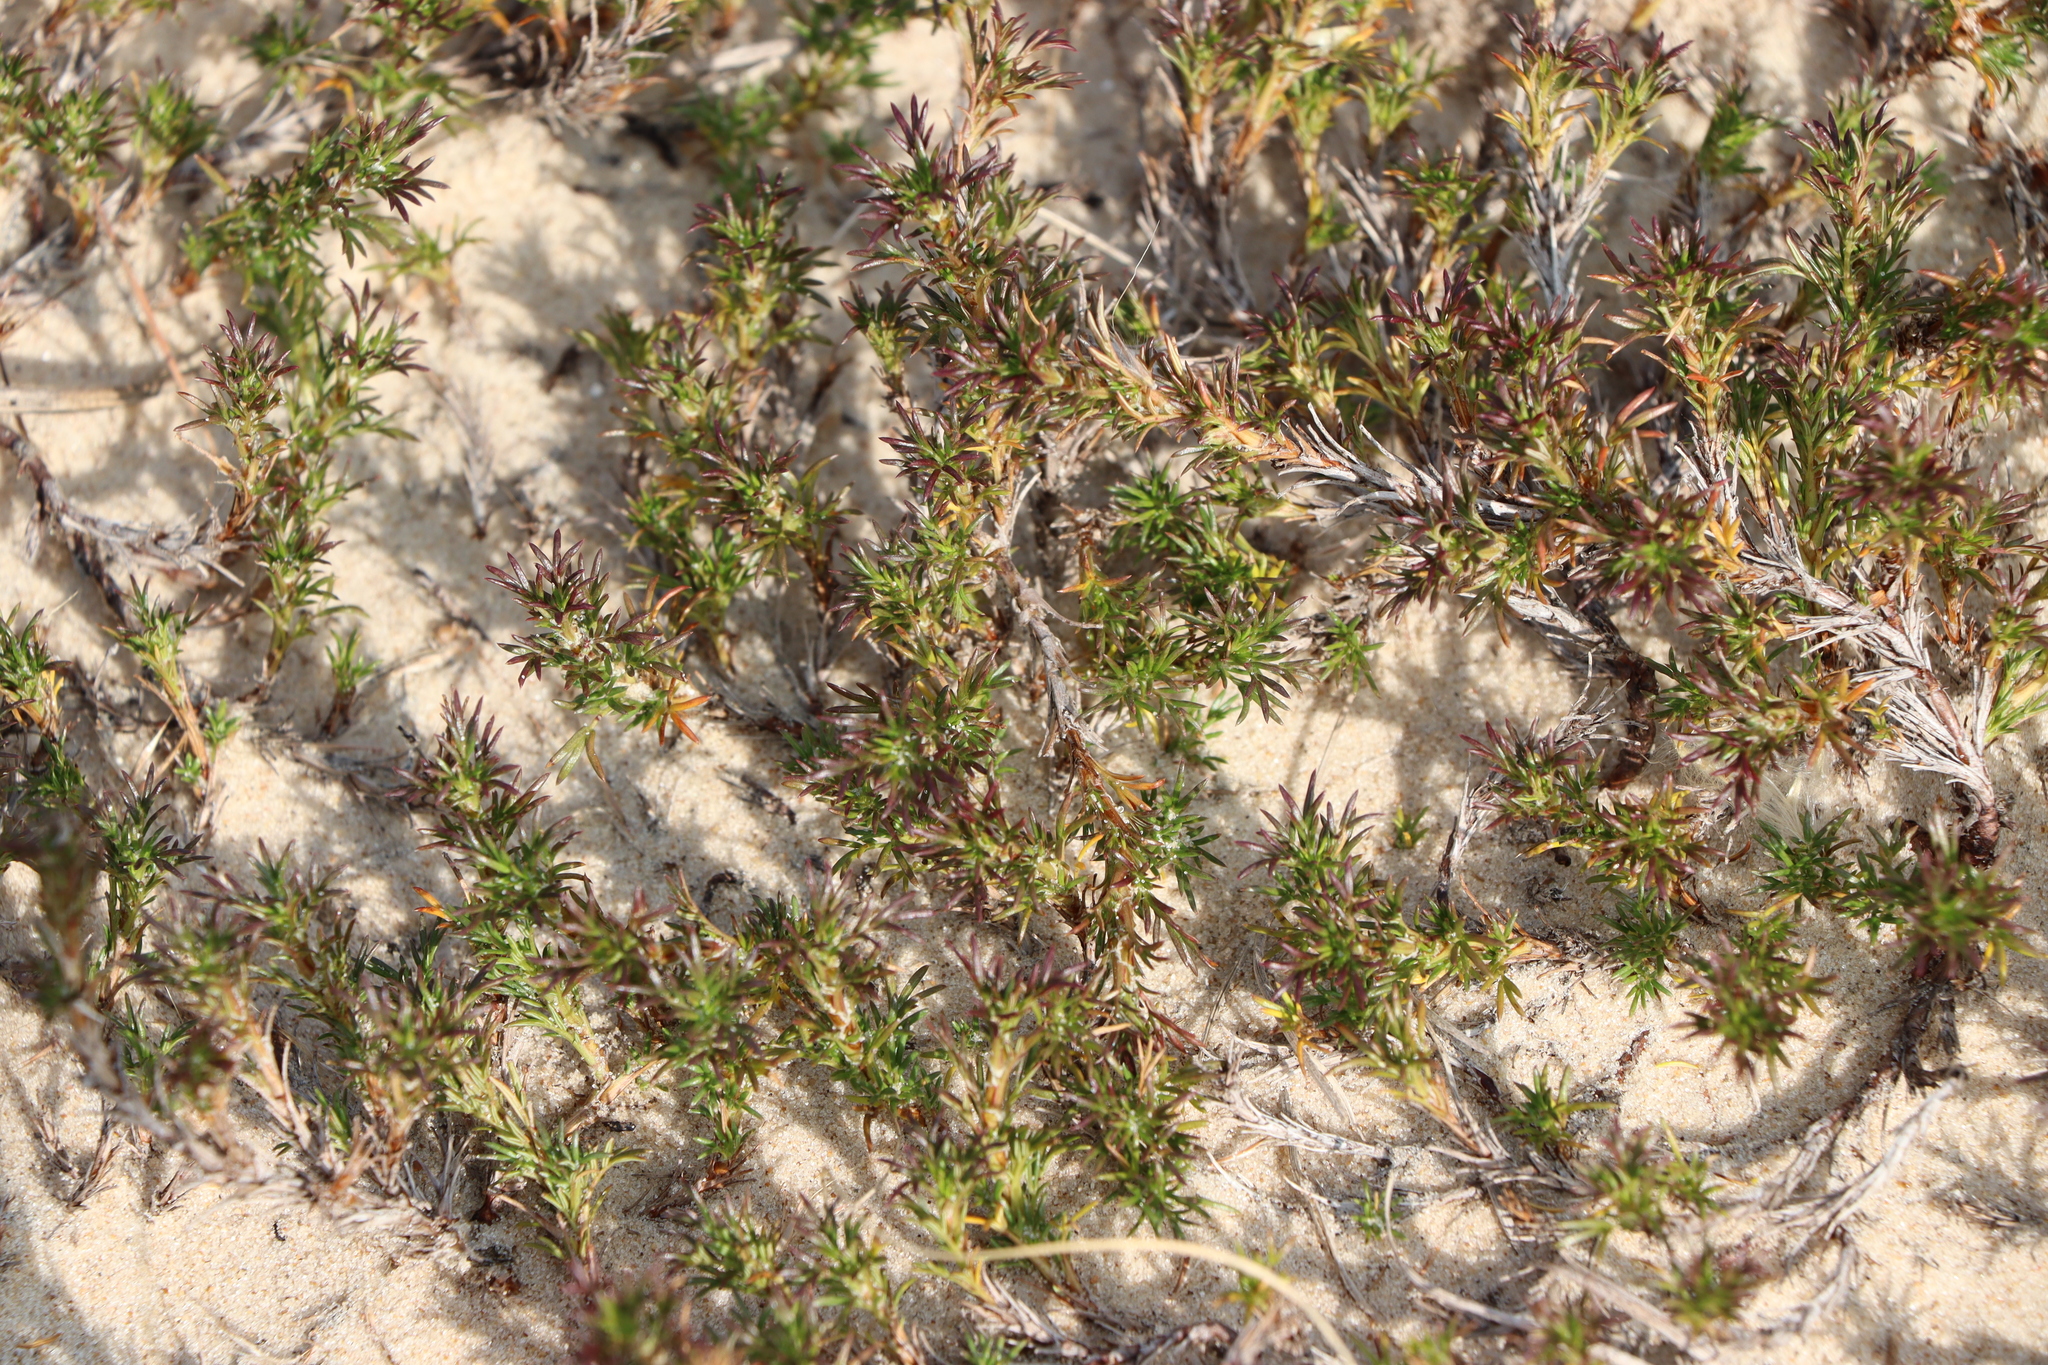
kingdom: Plantae
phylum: Tracheophyta
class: Magnoliopsida
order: Rosales
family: Rosaceae
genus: Margyricarpus
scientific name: Margyricarpus pinnatus
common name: Pearlfruit
